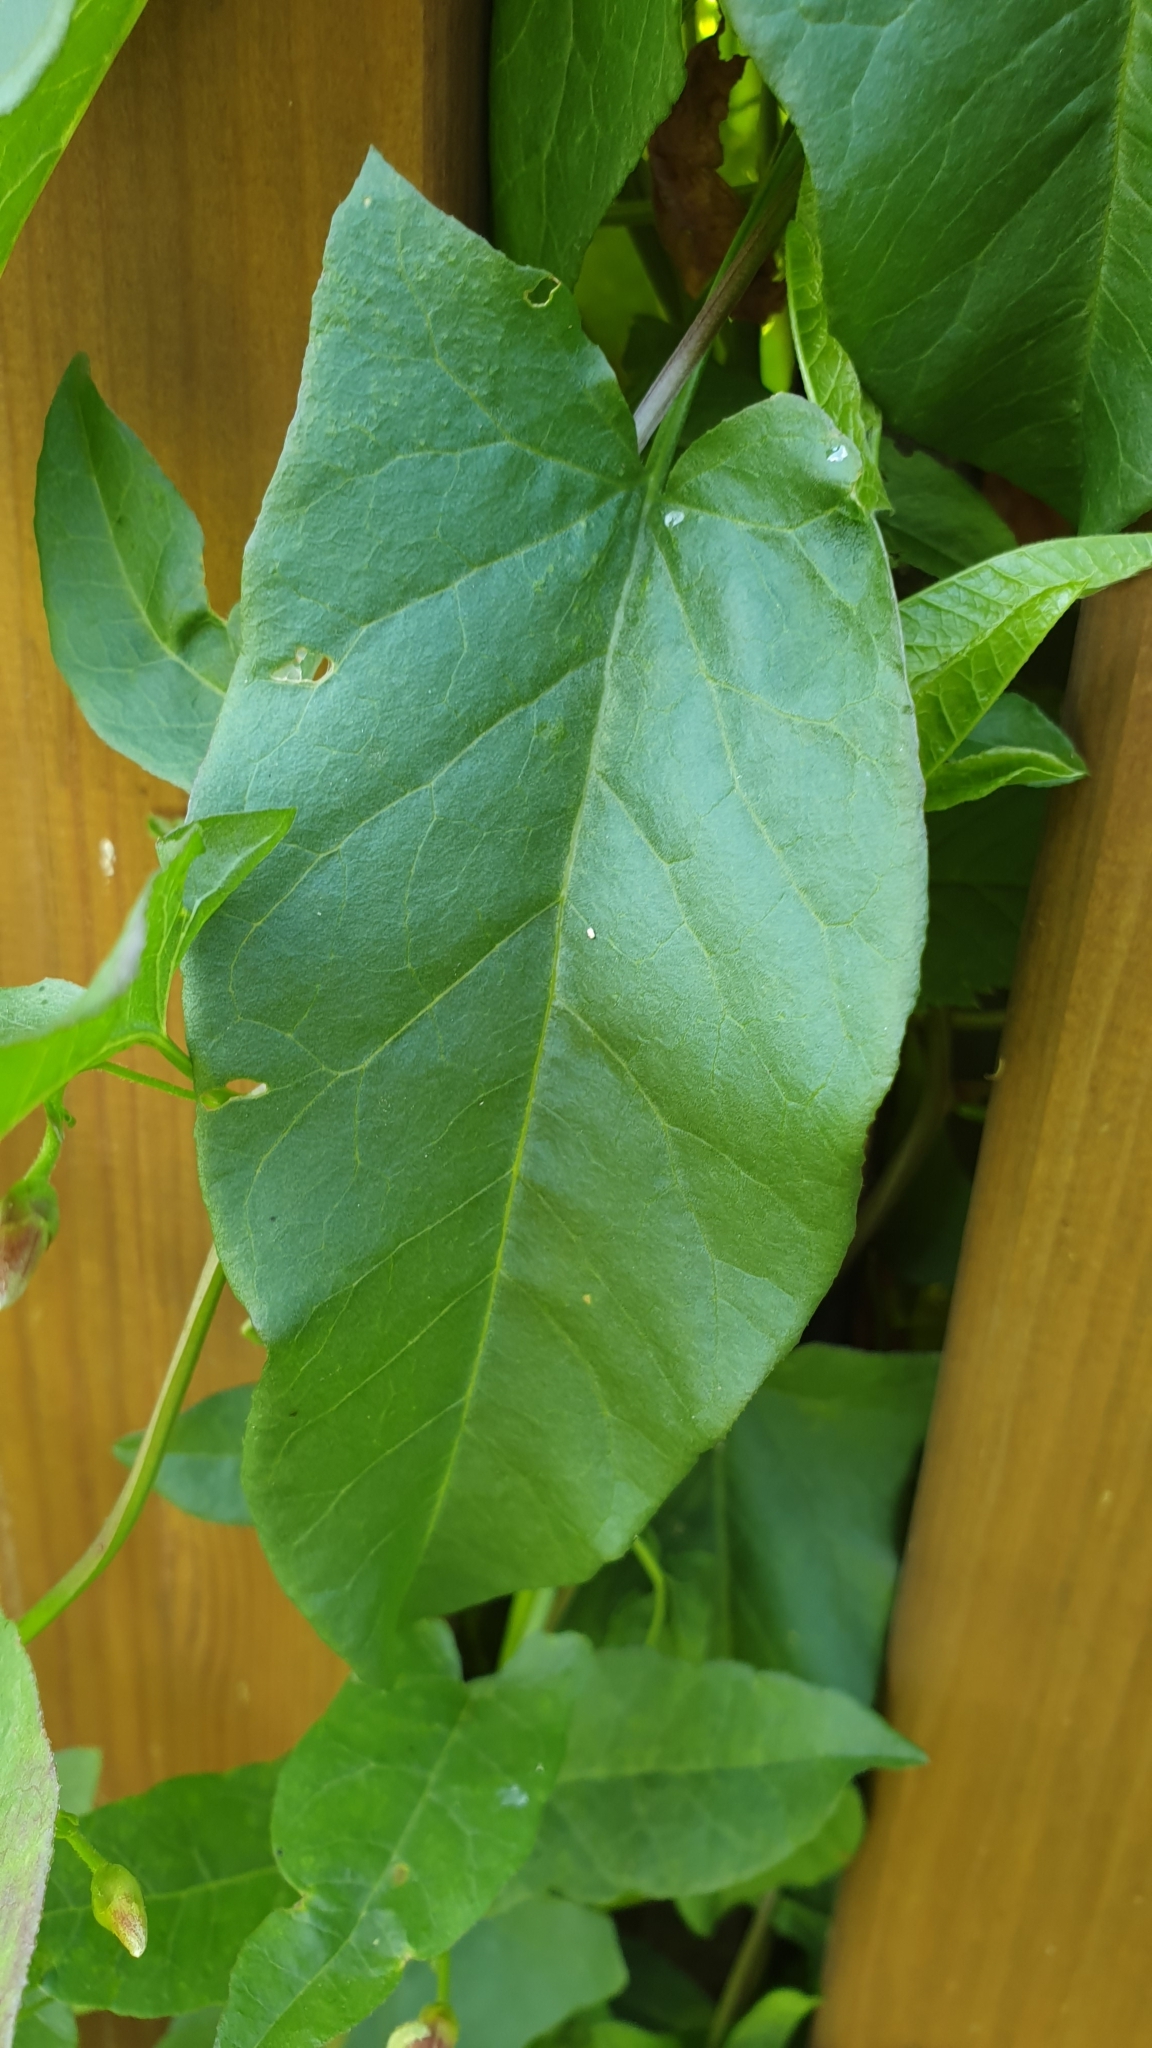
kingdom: Plantae
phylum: Tracheophyta
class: Magnoliopsida
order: Solanales
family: Convolvulaceae
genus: Convolvulus
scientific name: Convolvulus arvensis
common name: Field bindweed
